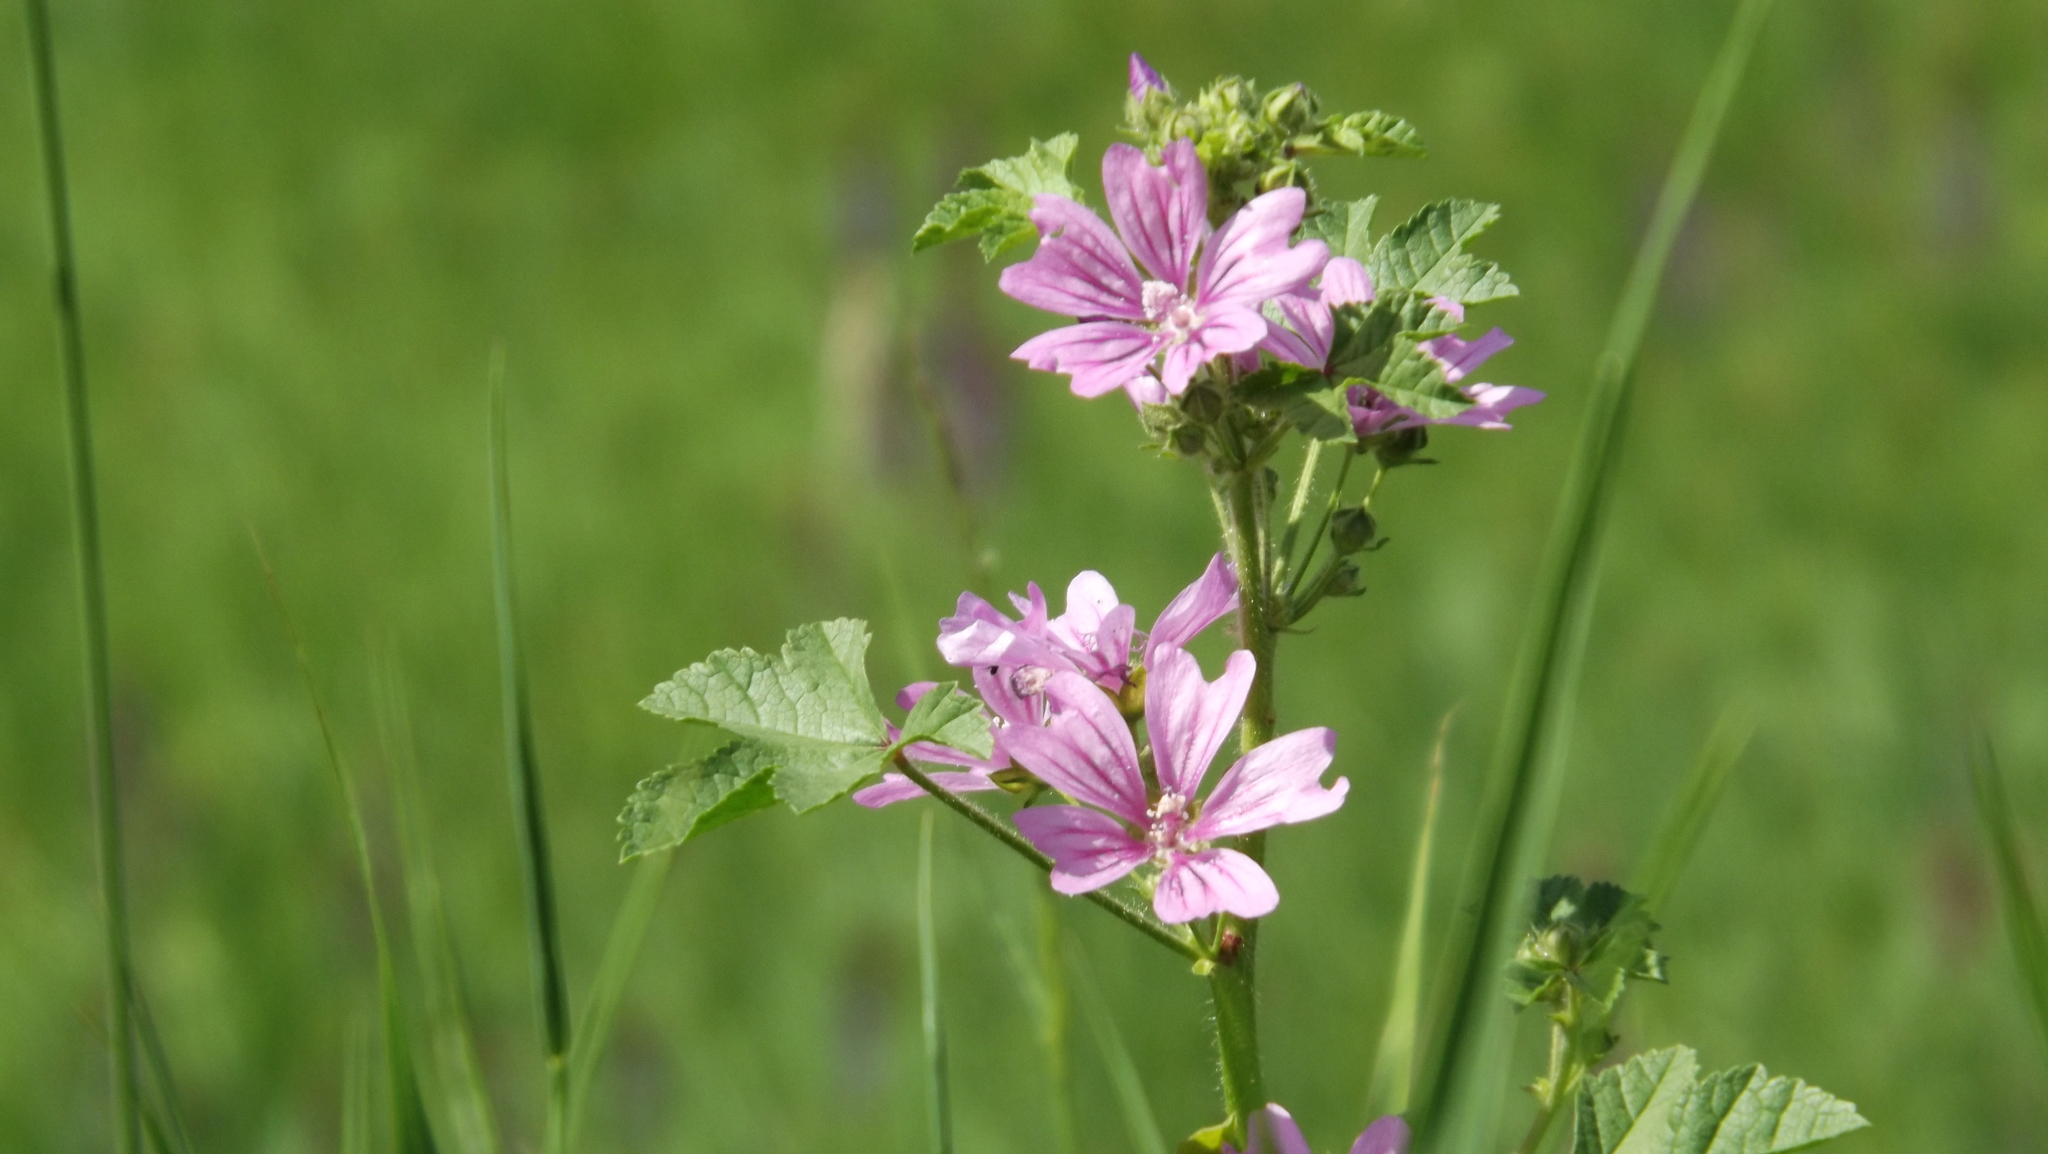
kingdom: Plantae
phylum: Tracheophyta
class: Magnoliopsida
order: Malvales
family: Malvaceae
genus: Malva
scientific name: Malva sylvestris
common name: Common mallow
